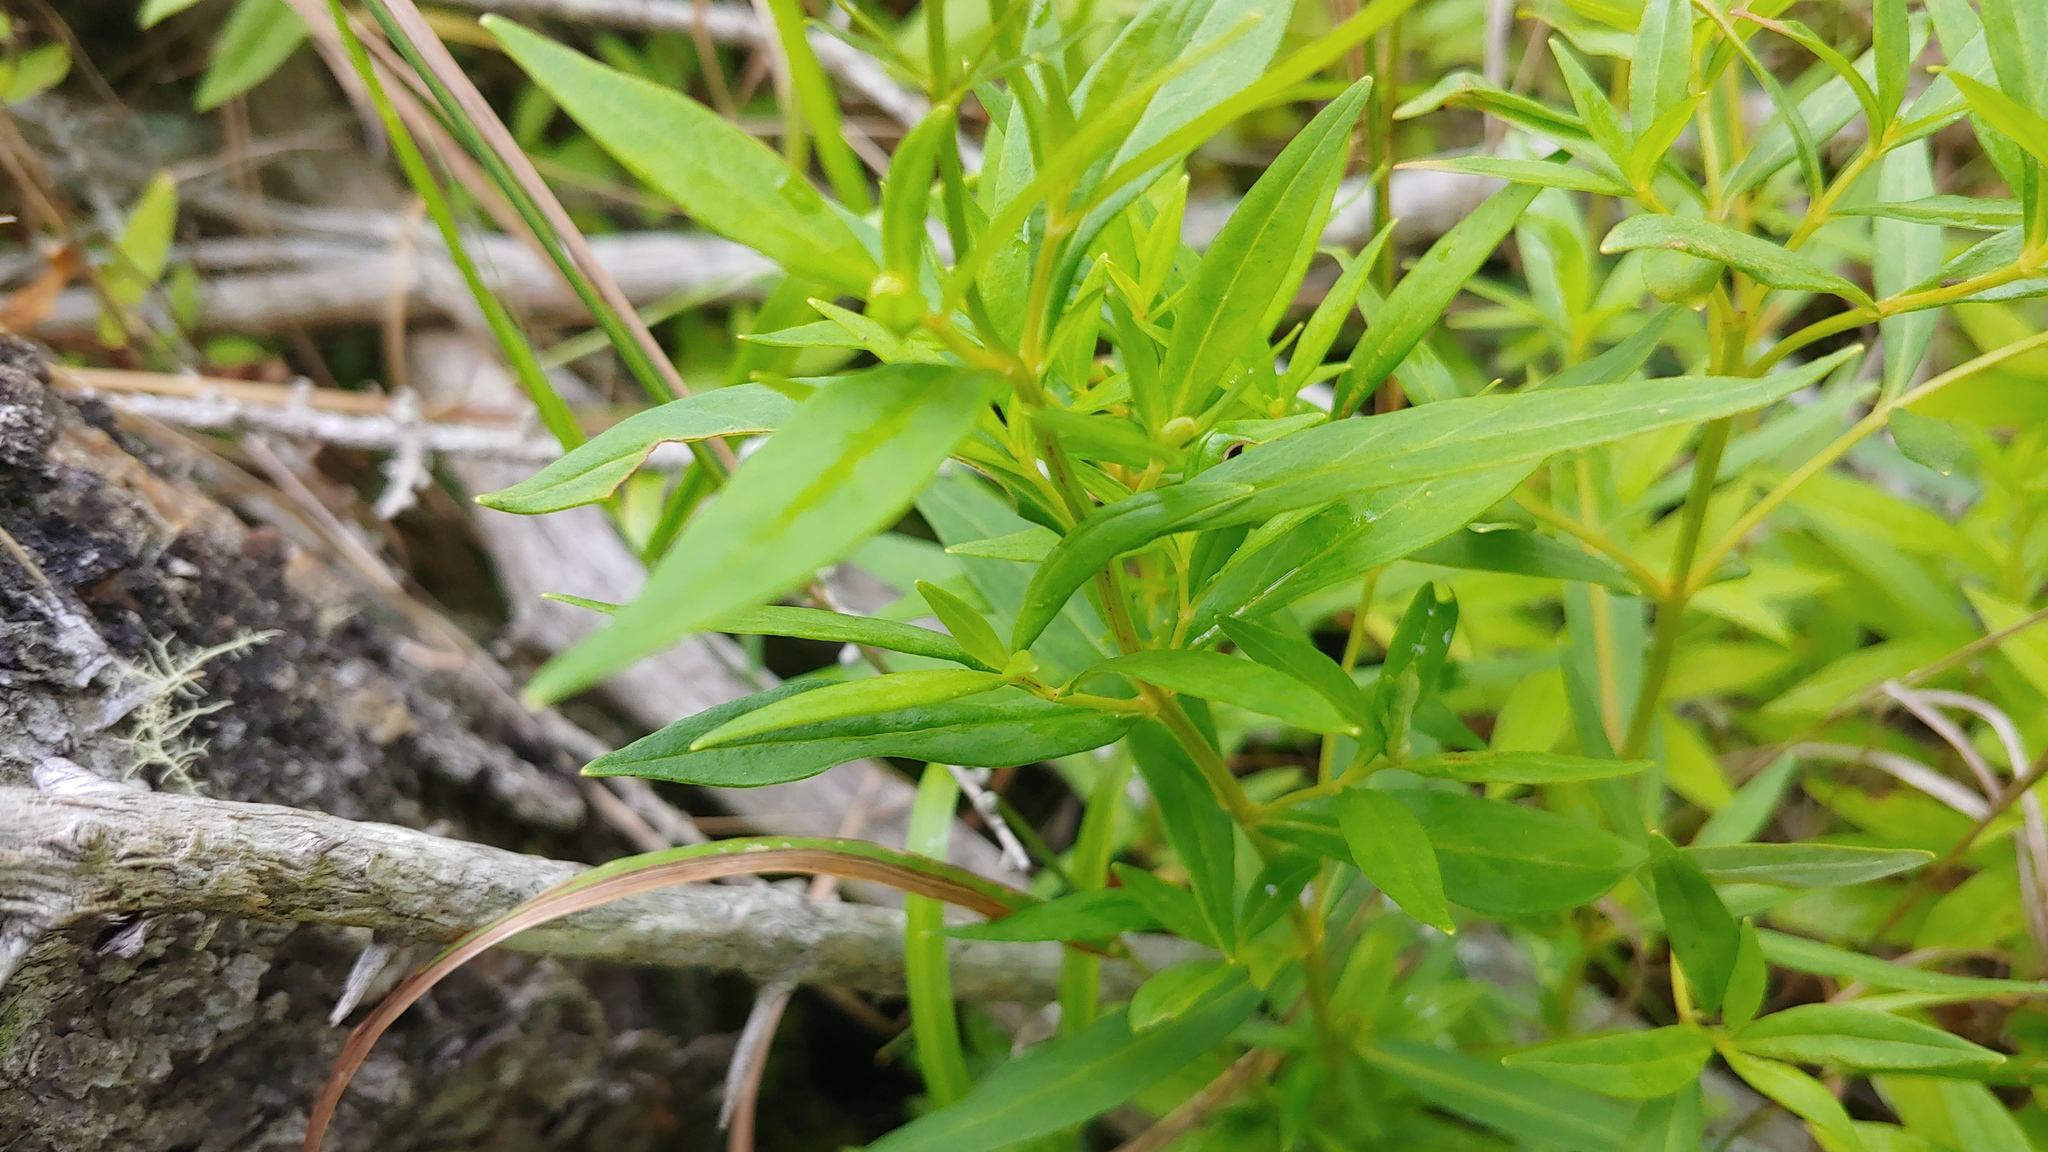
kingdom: Plantae
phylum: Tracheophyta
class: Magnoliopsida
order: Ericales
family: Primulaceae
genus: Lysimachia
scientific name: Lysimachia terrestris
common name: Lake loosestrife
